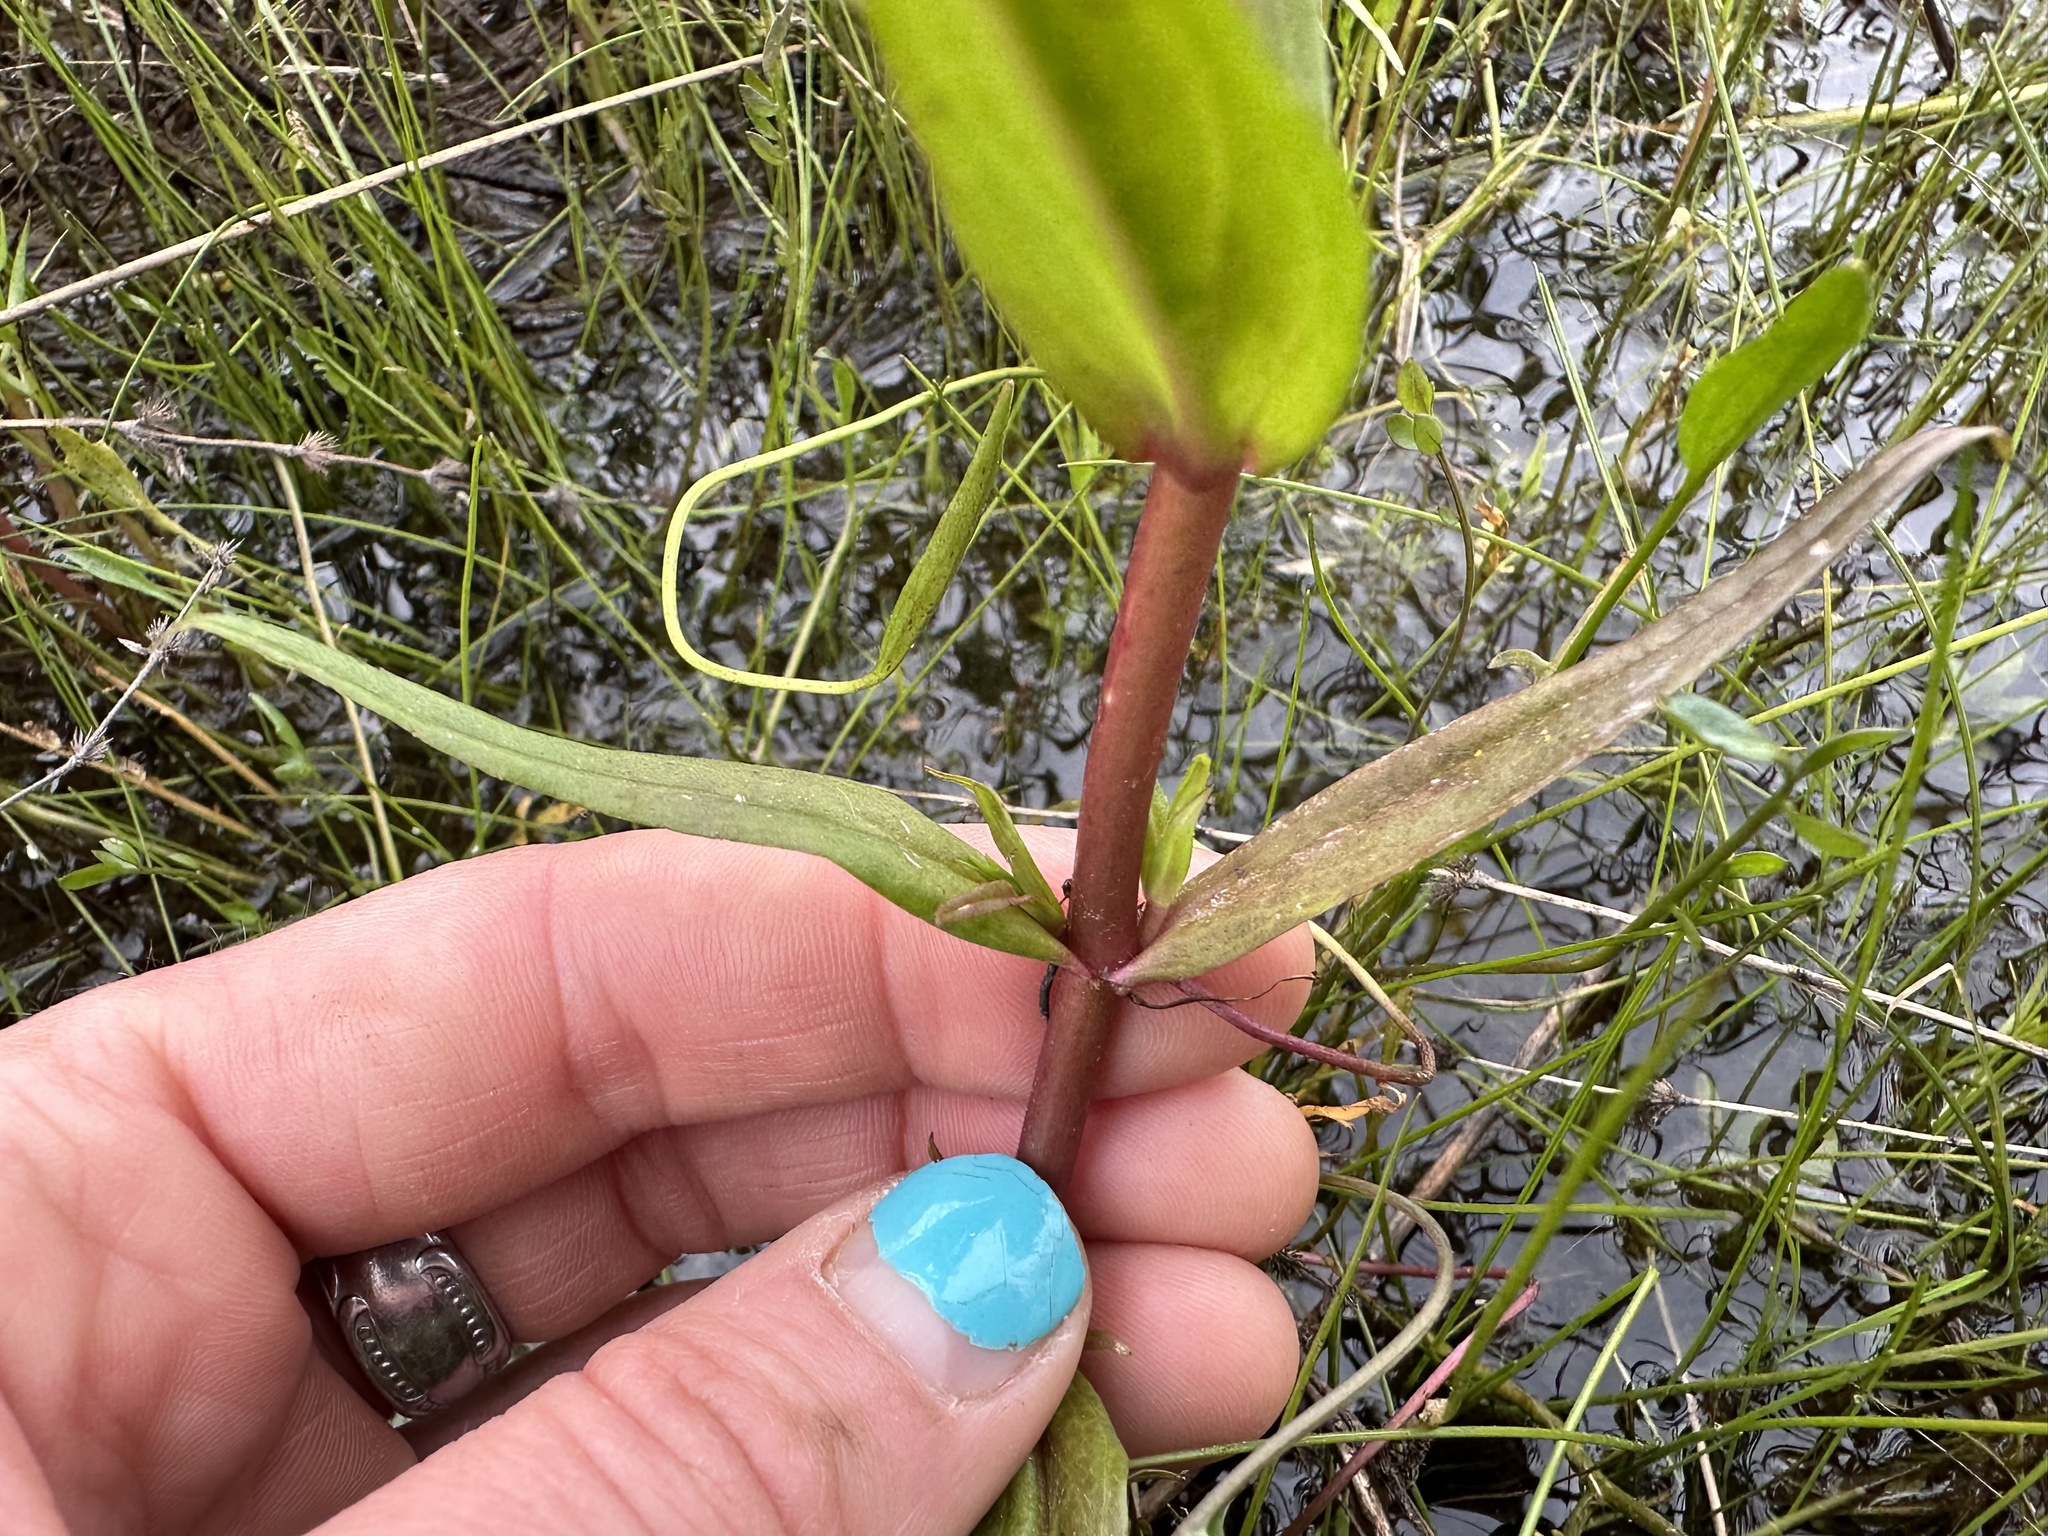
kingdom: Plantae
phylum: Tracheophyta
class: Magnoliopsida
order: Lamiales
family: Plantaginaceae
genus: Veronica
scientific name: Veronica scutellata
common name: Marsh speedwell
